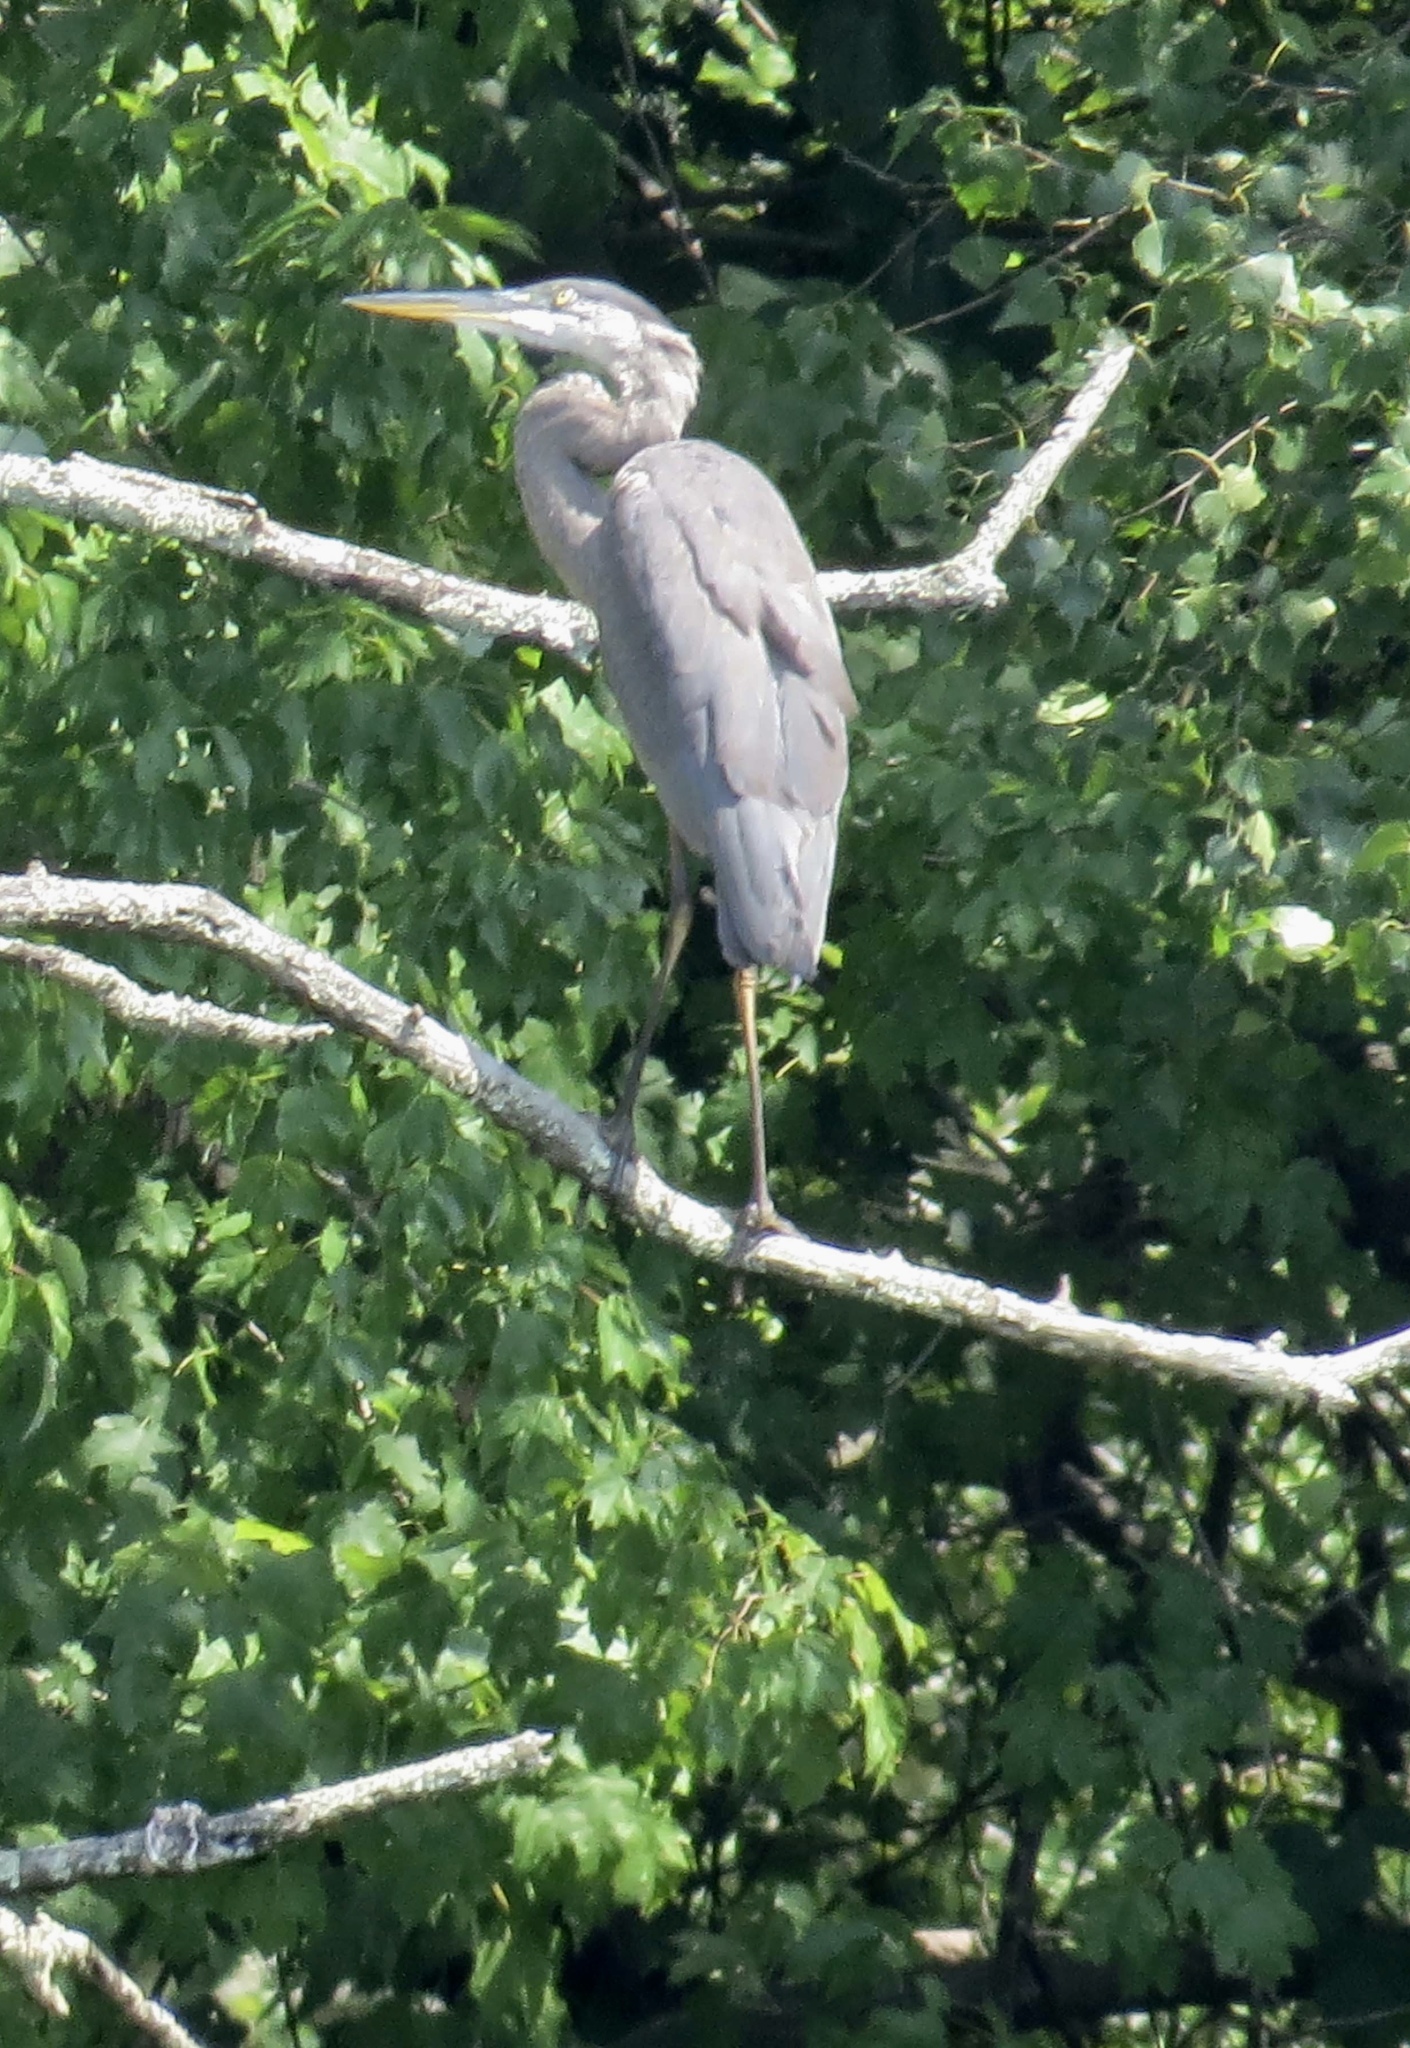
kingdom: Animalia
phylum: Chordata
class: Aves
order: Pelecaniformes
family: Ardeidae
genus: Ardea
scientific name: Ardea herodias
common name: Great blue heron
